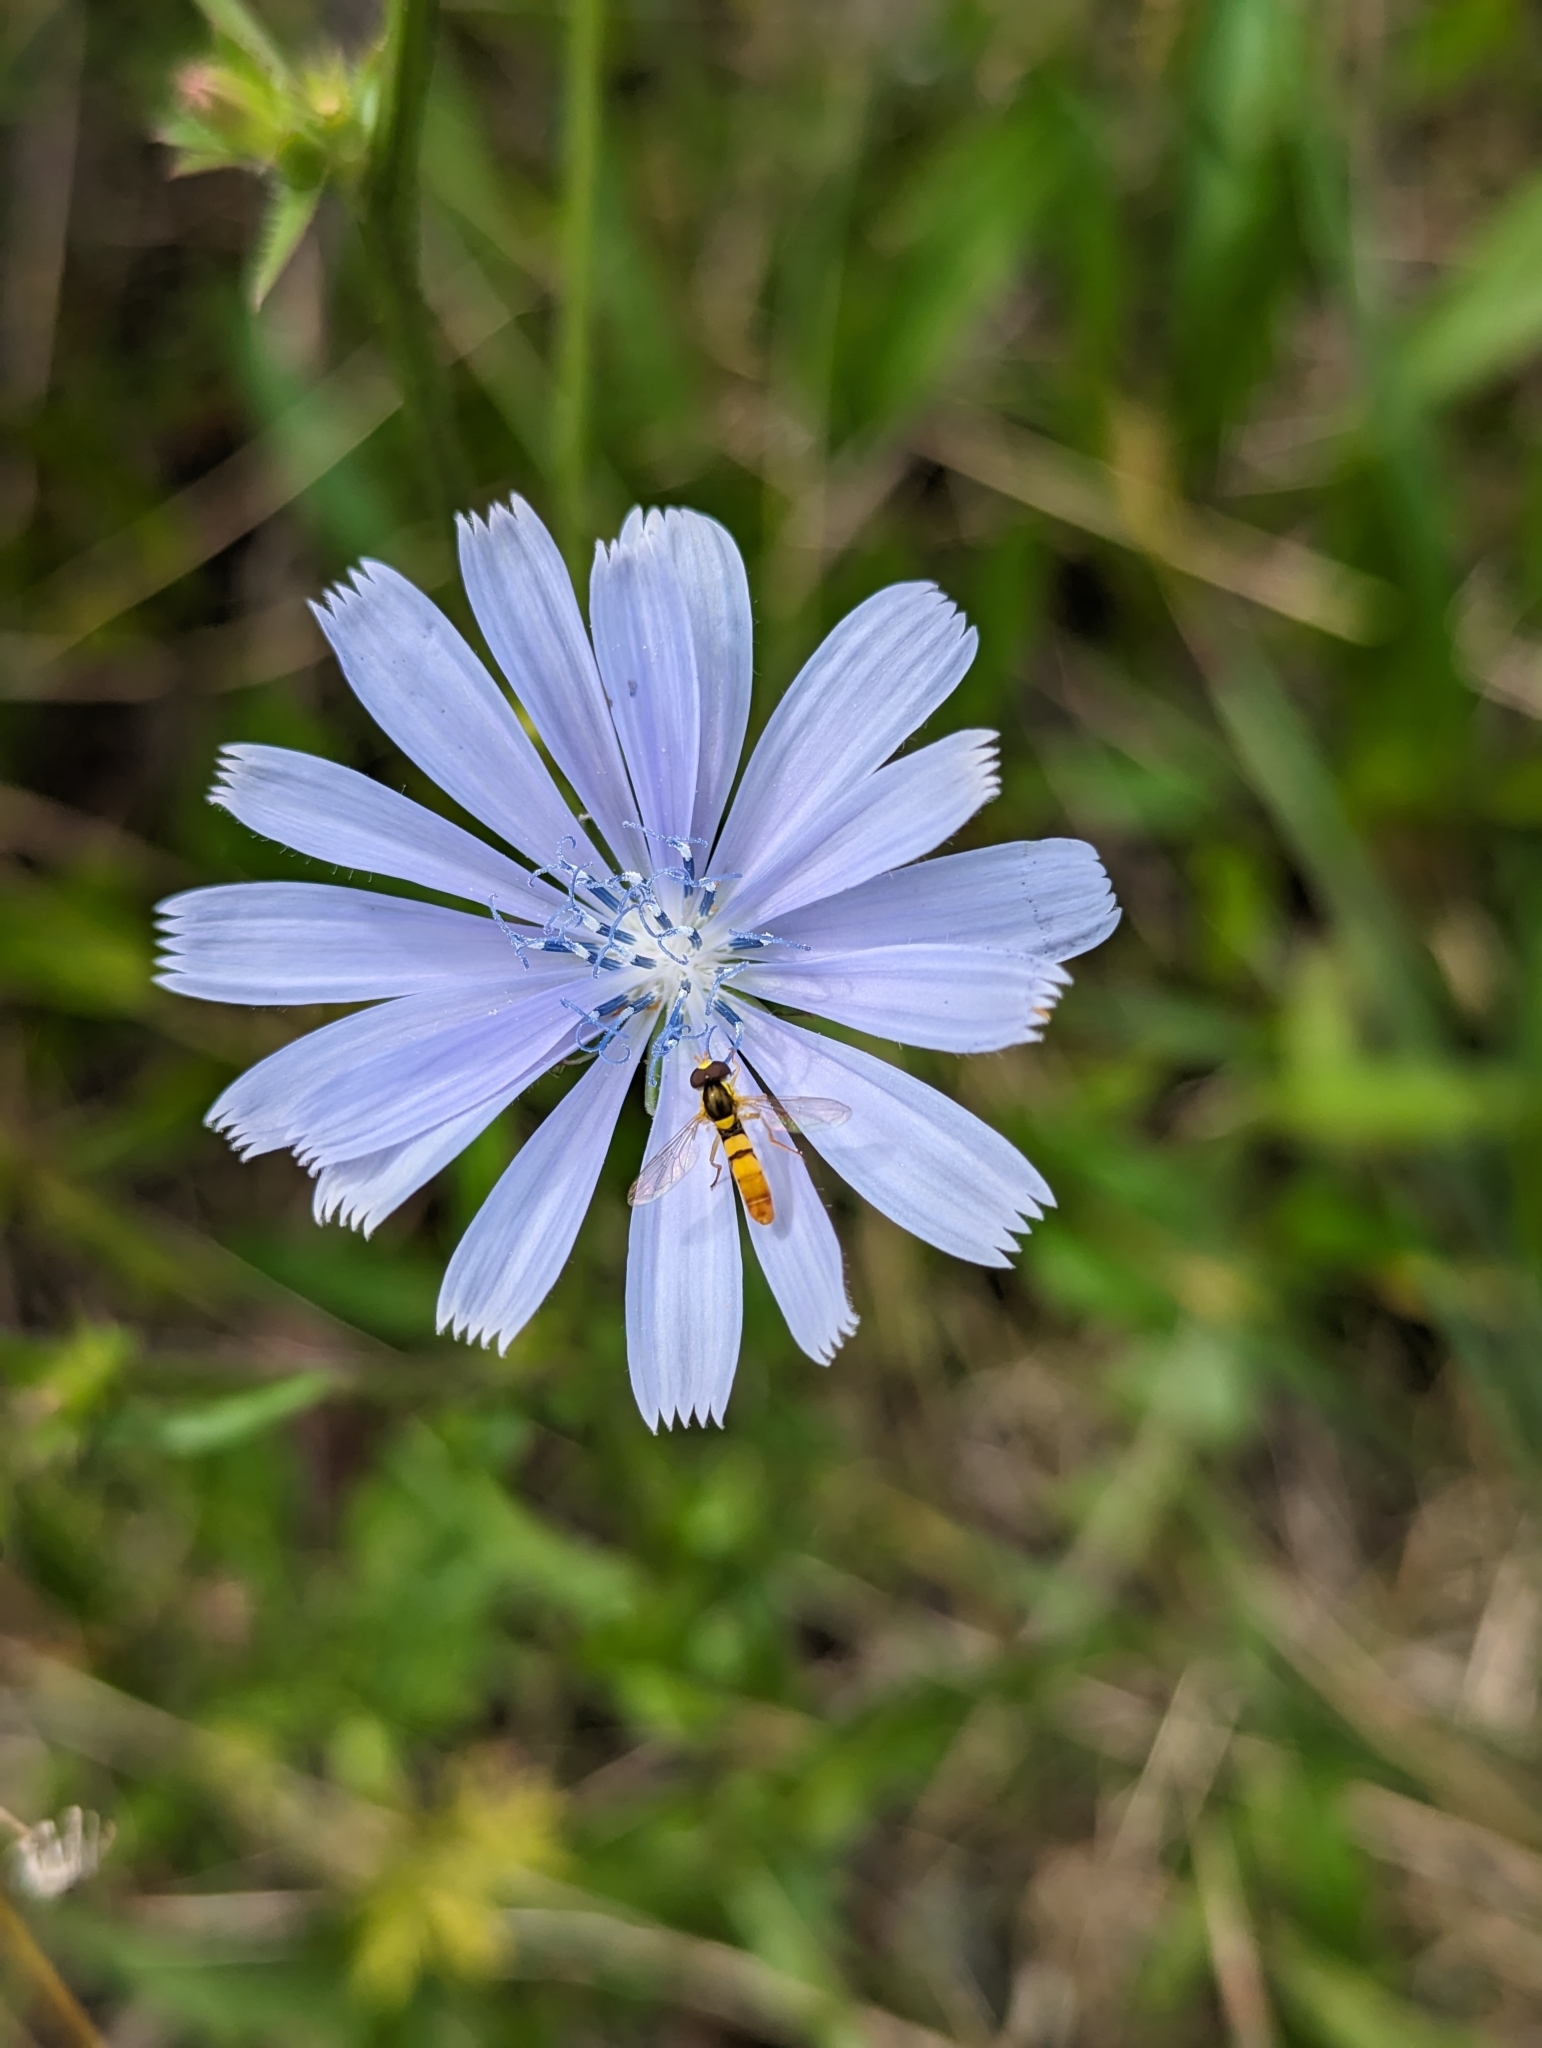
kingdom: Animalia
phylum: Arthropoda
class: Insecta
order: Diptera
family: Syrphidae
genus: Sphaerophoria
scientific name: Sphaerophoria contigua
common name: Tufted globetail
